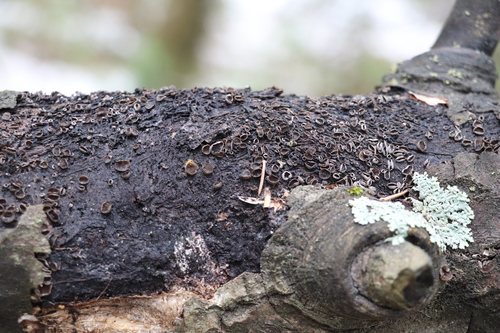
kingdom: Fungi
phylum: Ascomycota
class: Leotiomycetes
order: Helotiales
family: Sclerotiniaceae
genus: Sclerencoelia
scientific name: Sclerencoelia pruinosa
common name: Sooty-bark canker
